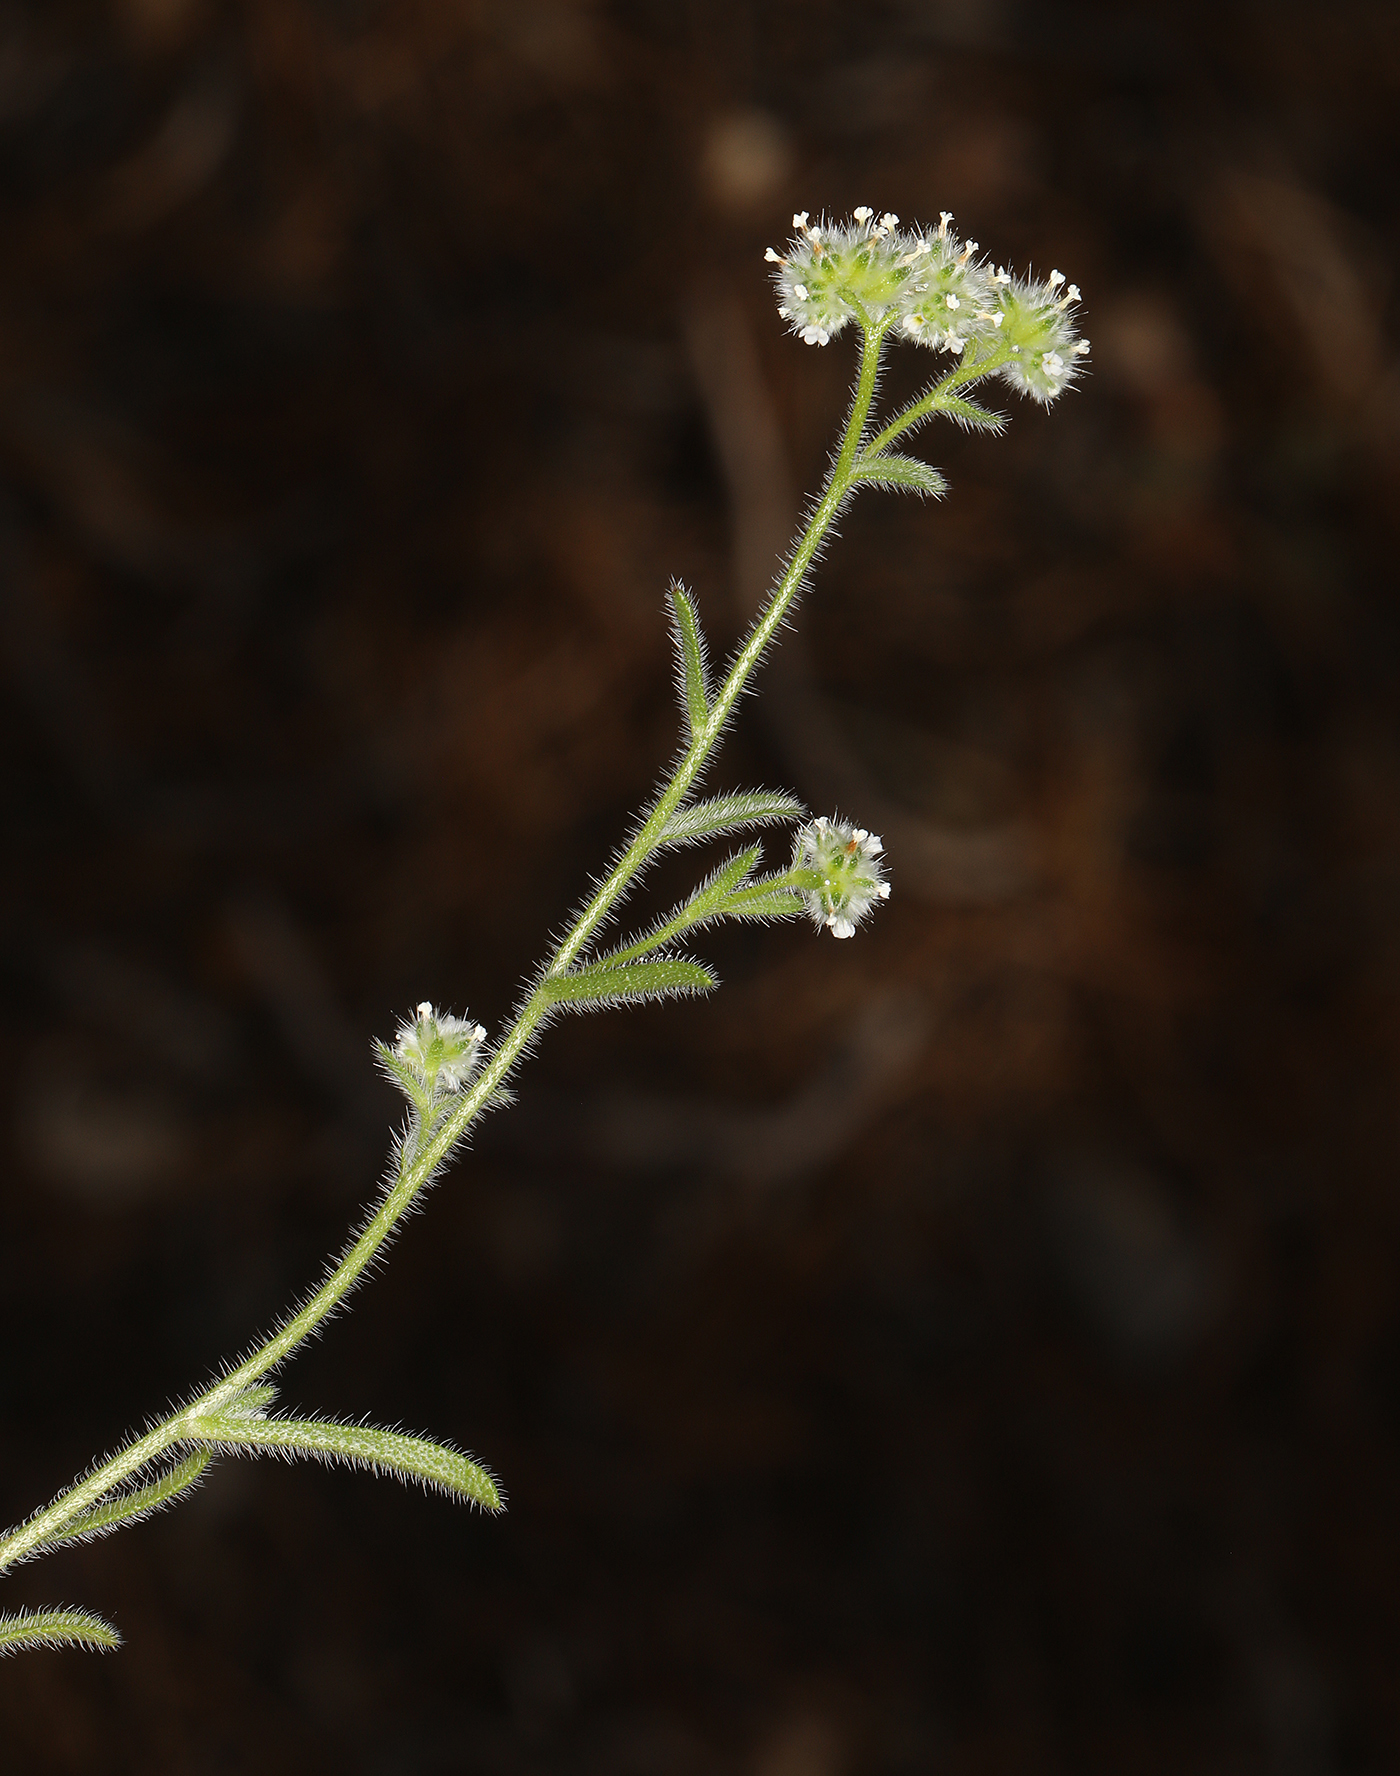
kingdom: Plantae
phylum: Tracheophyta
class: Magnoliopsida
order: Boraginales
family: Boraginaceae
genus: Cryptantha
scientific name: Cryptantha gracilis
